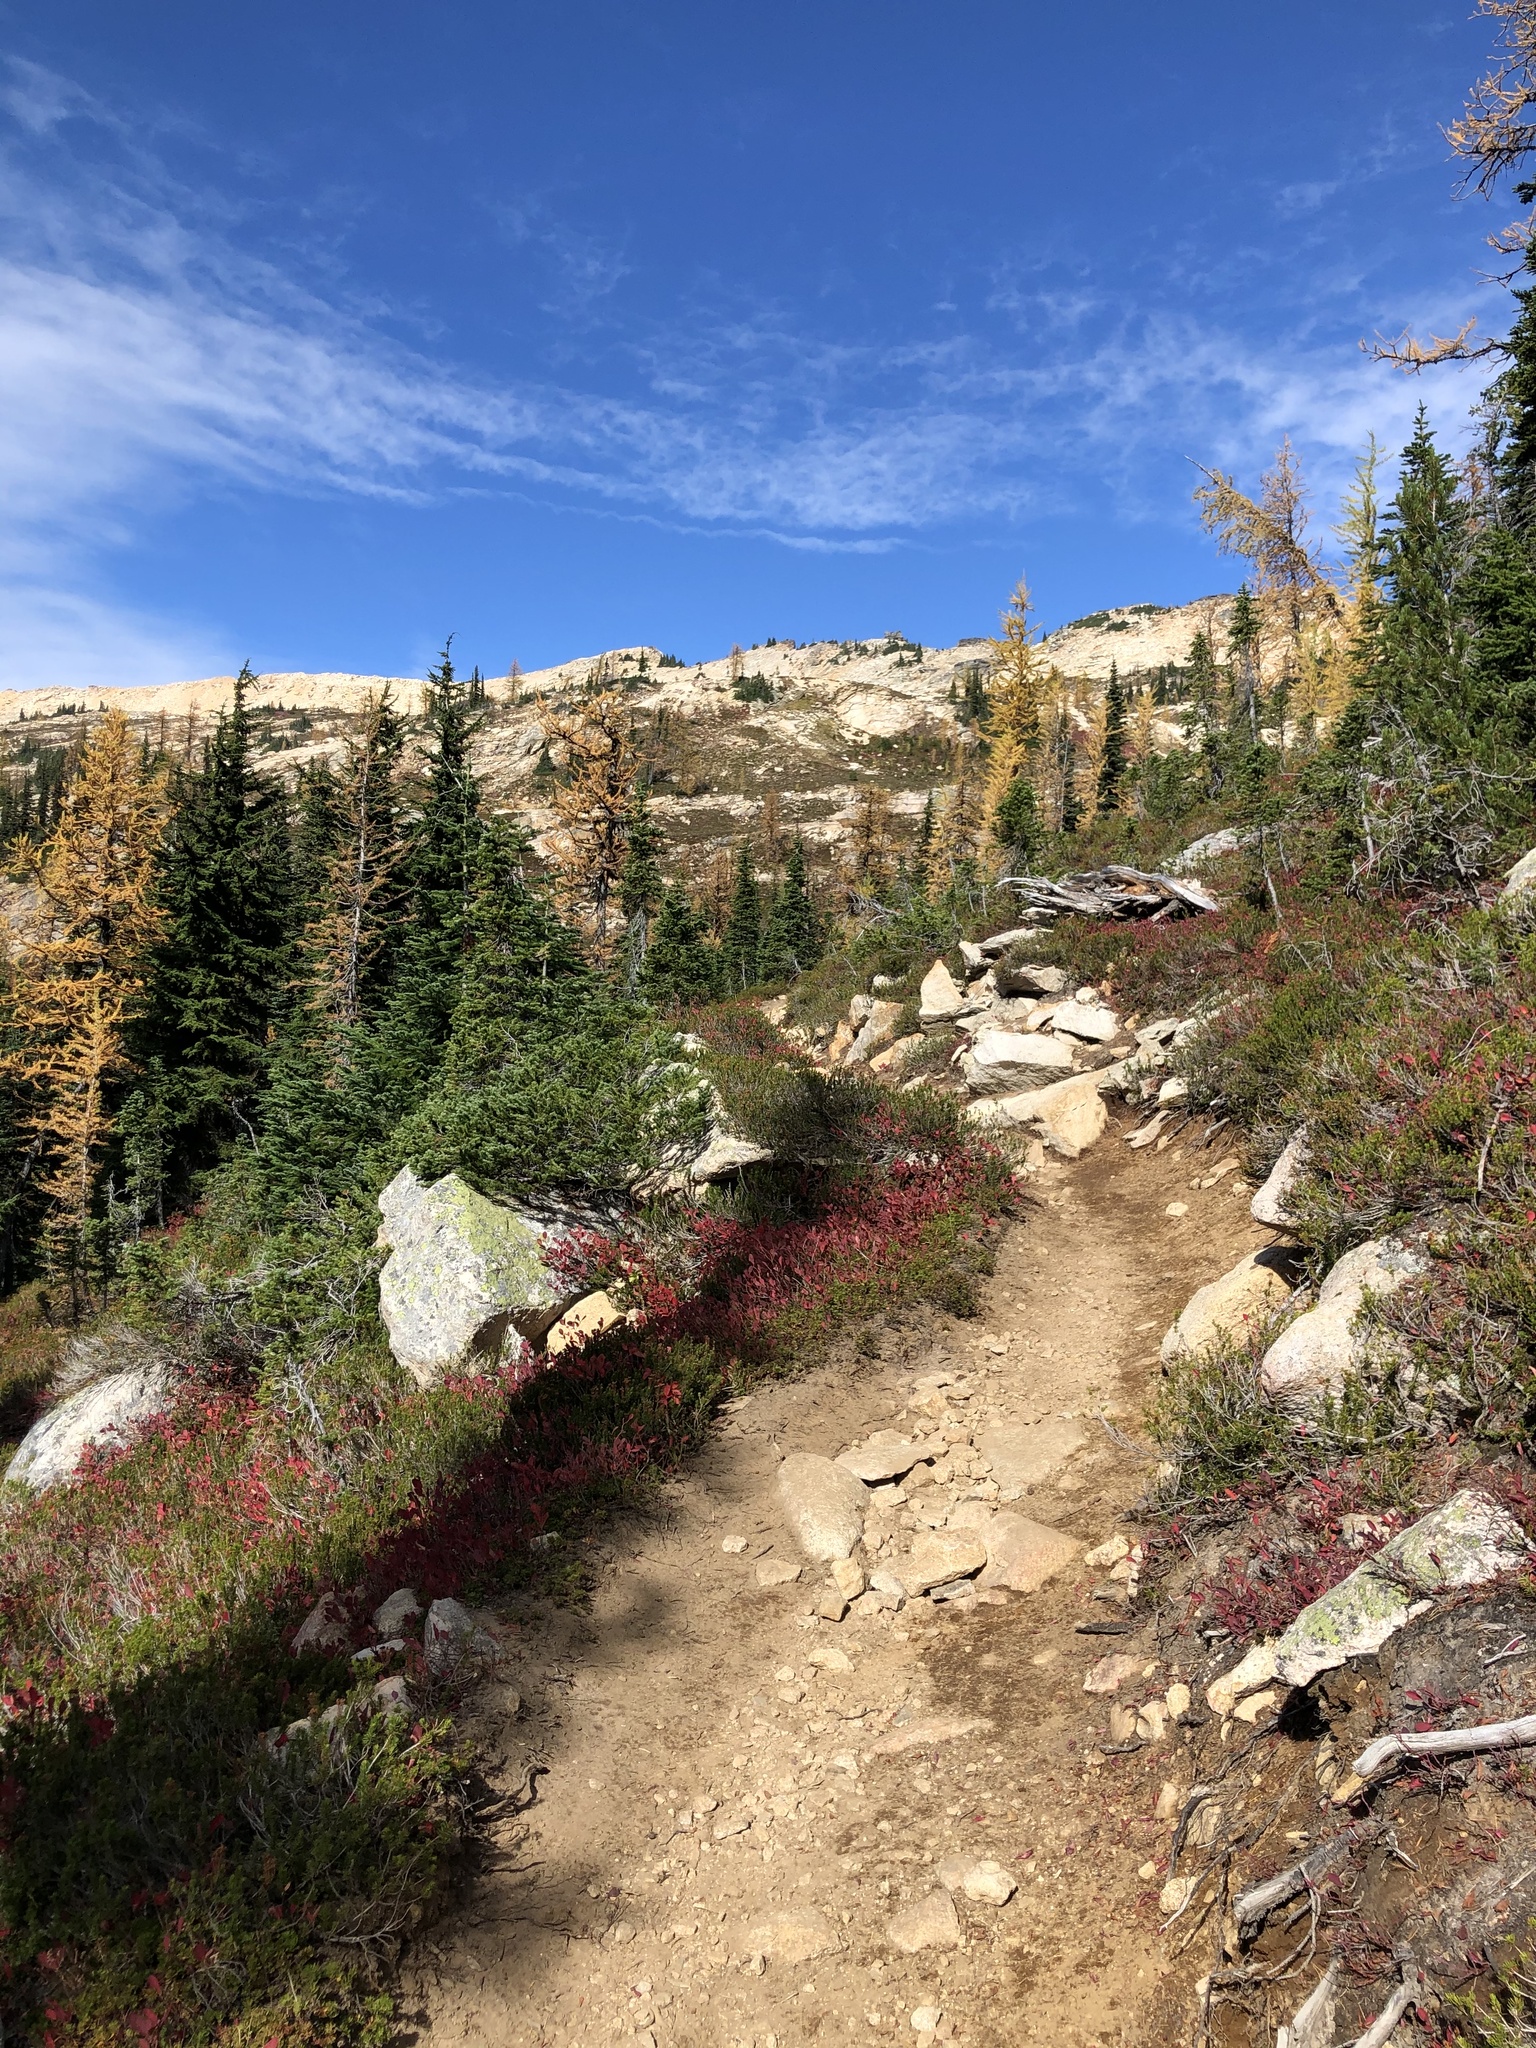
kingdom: Plantae
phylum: Tracheophyta
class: Pinopsida
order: Pinales
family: Pinaceae
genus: Tsuga
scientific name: Tsuga mertensiana
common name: Mountain hemlock
